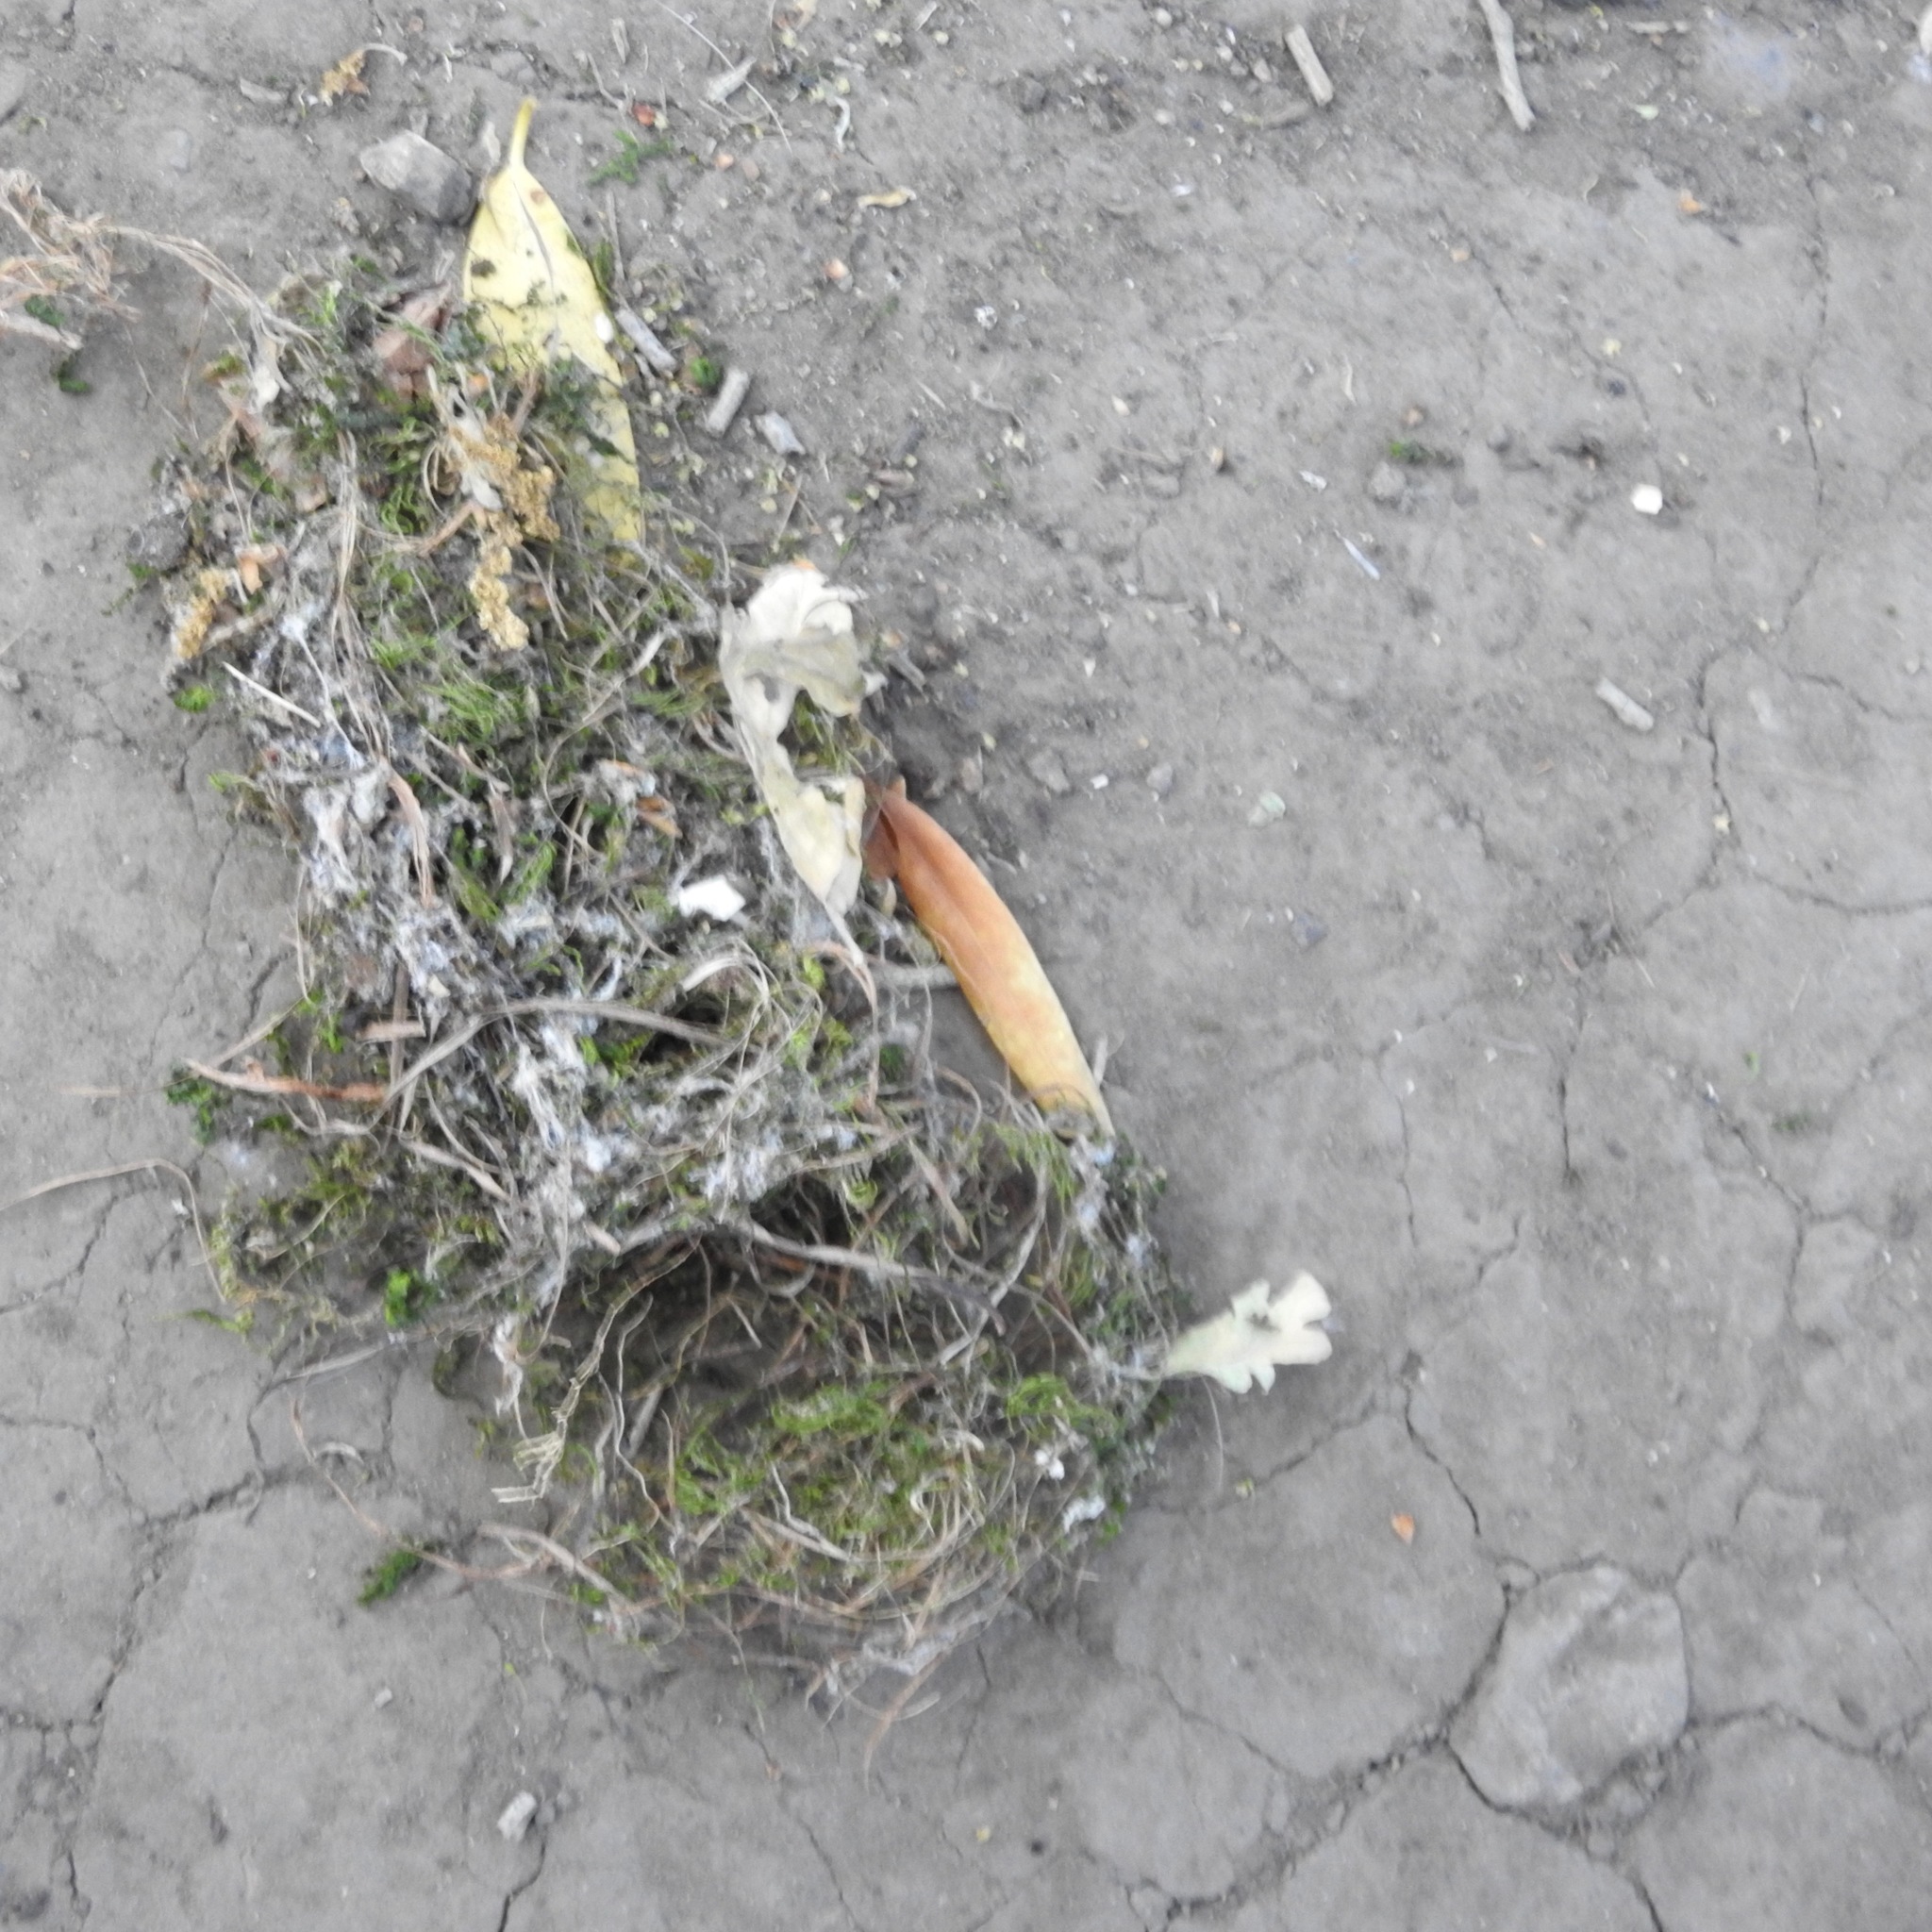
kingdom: Animalia
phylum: Chordata
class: Aves
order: Passeriformes
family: Aegithalidae
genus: Psaltriparus
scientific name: Psaltriparus minimus
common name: American bushtit
